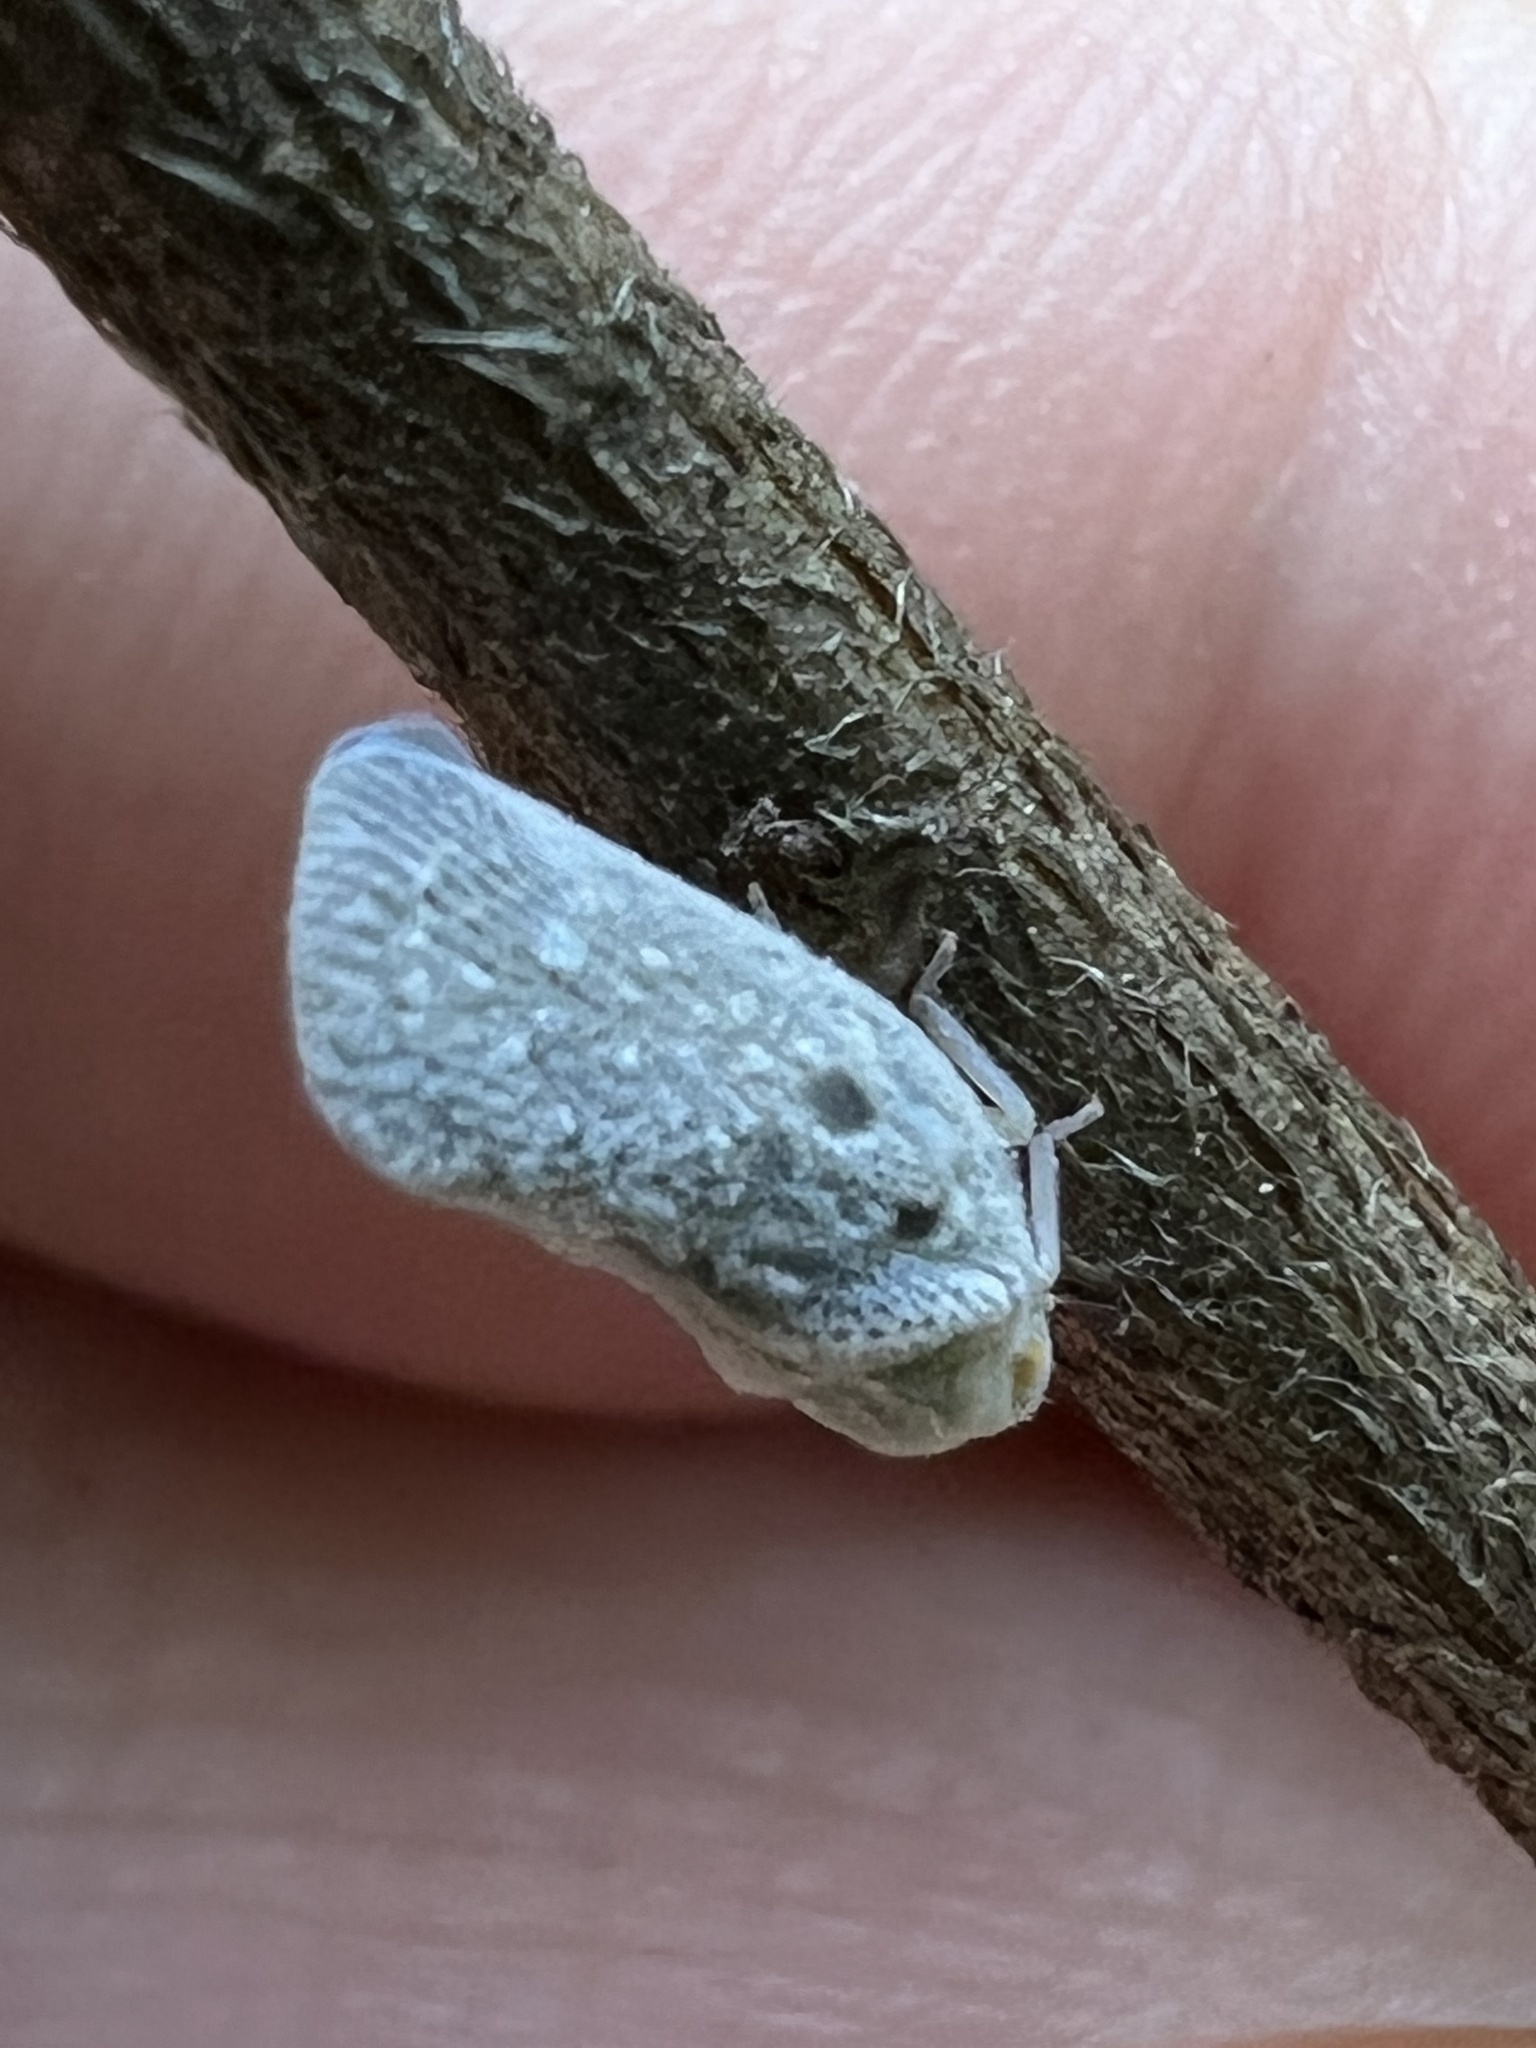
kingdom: Animalia
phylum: Arthropoda
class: Insecta
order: Hemiptera
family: Flatidae
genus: Metcalfa
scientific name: Metcalfa pruinosa
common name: Citrus flatid planthopper
